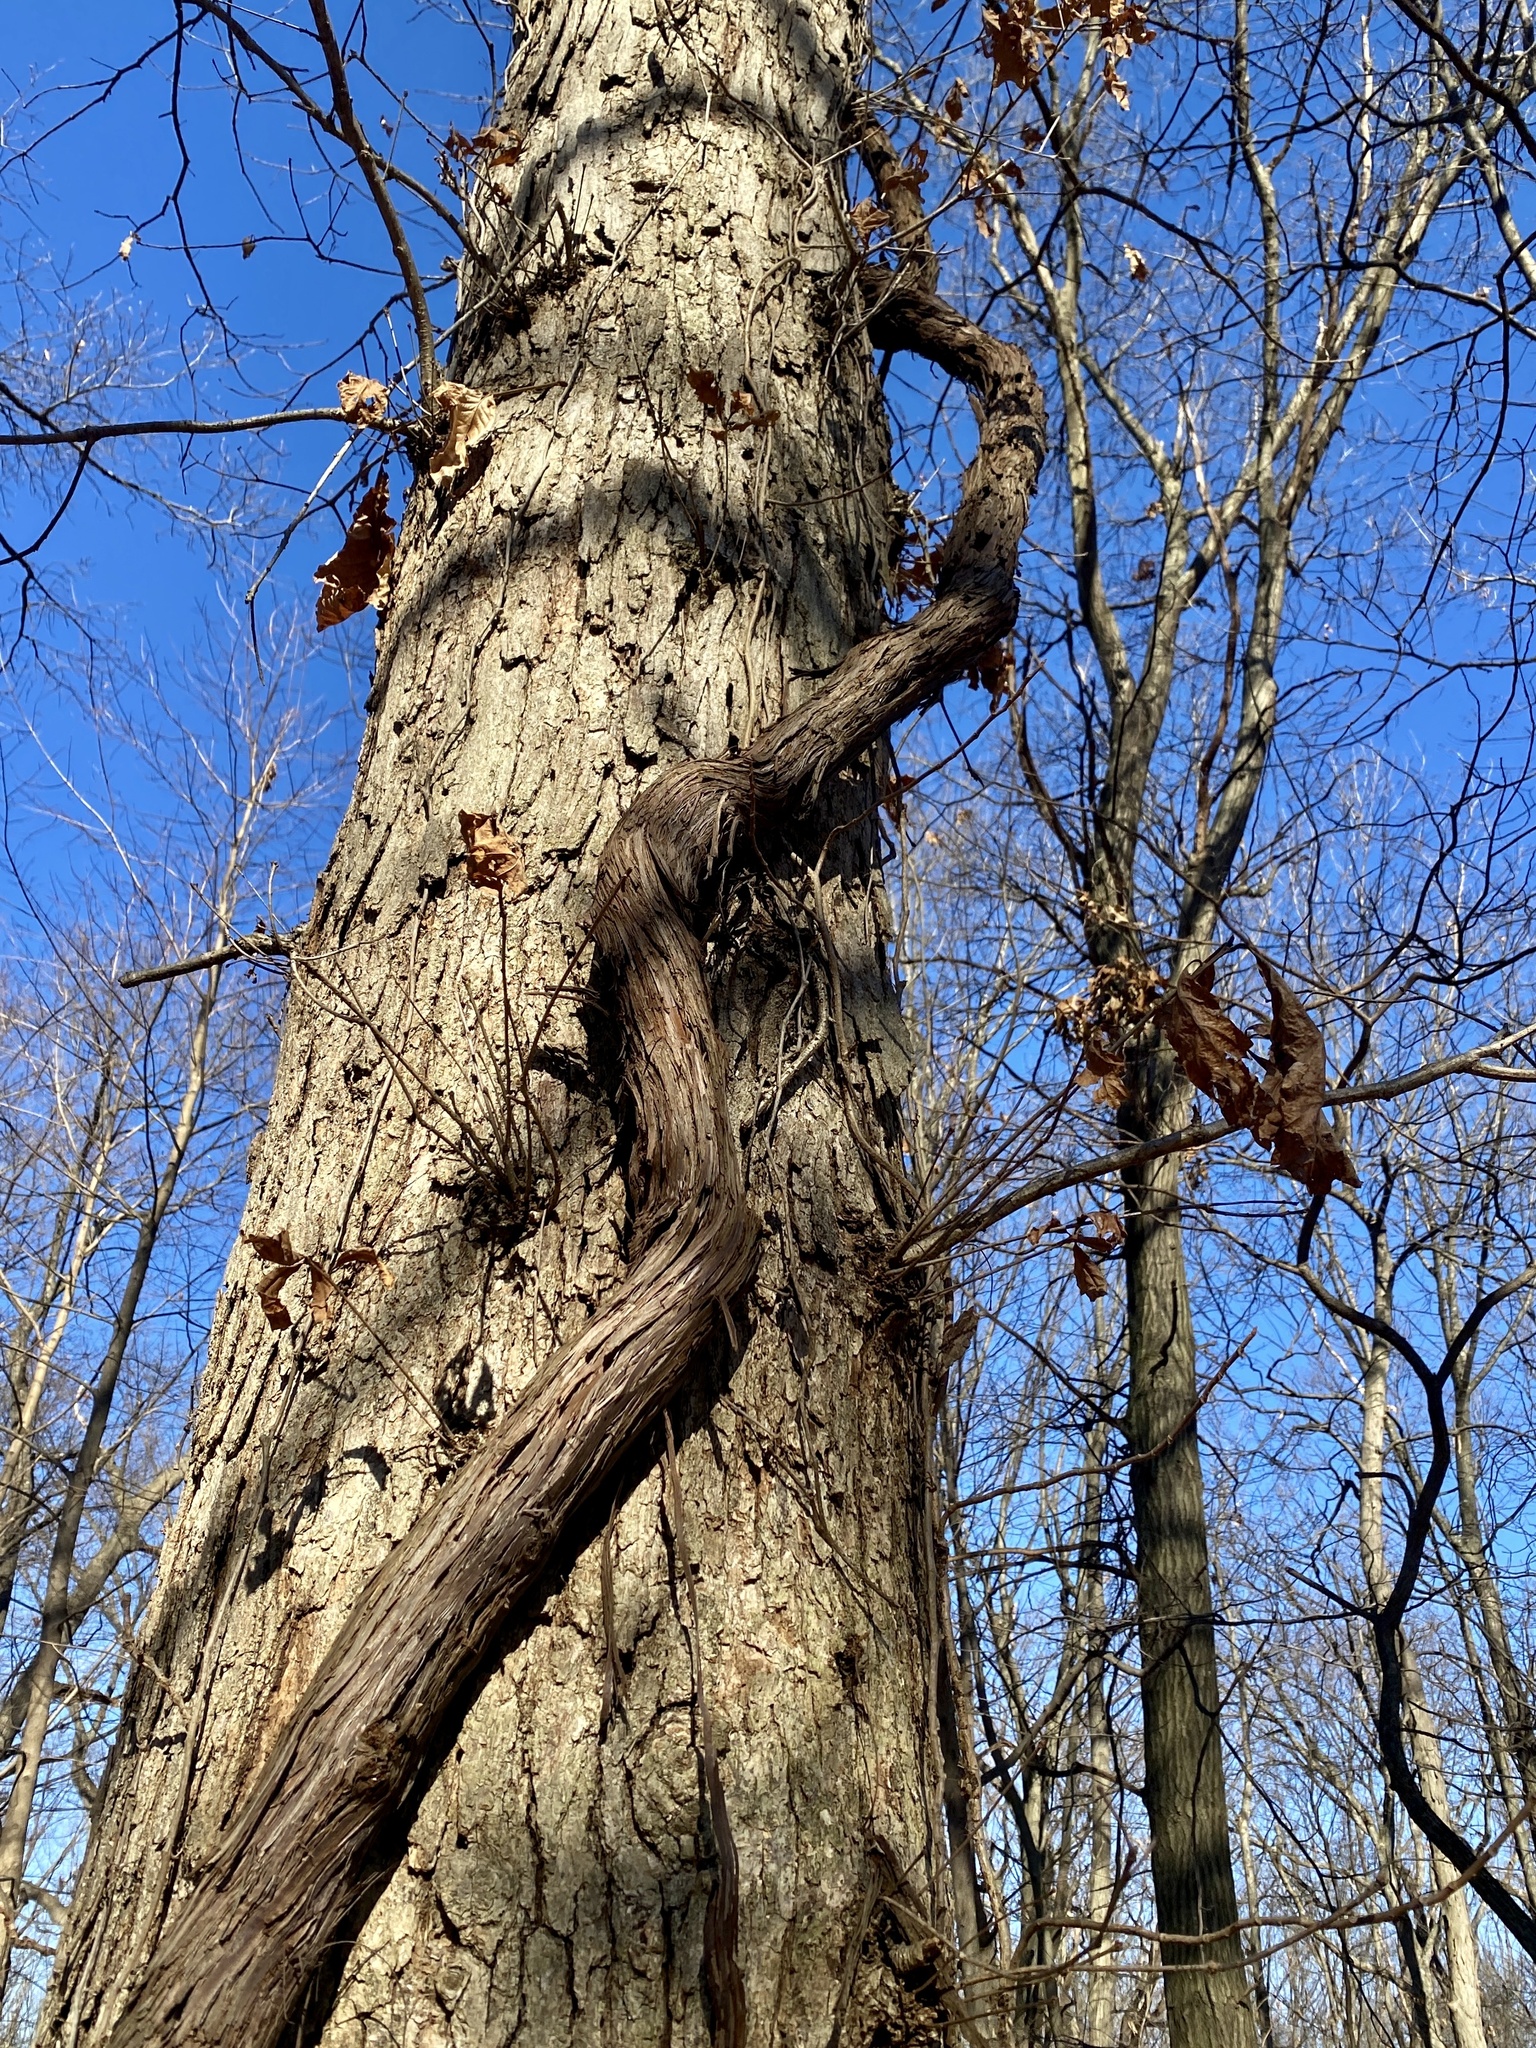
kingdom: Plantae
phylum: Tracheophyta
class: Magnoliopsida
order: Vitales
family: Vitaceae
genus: Vitis
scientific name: Vitis
